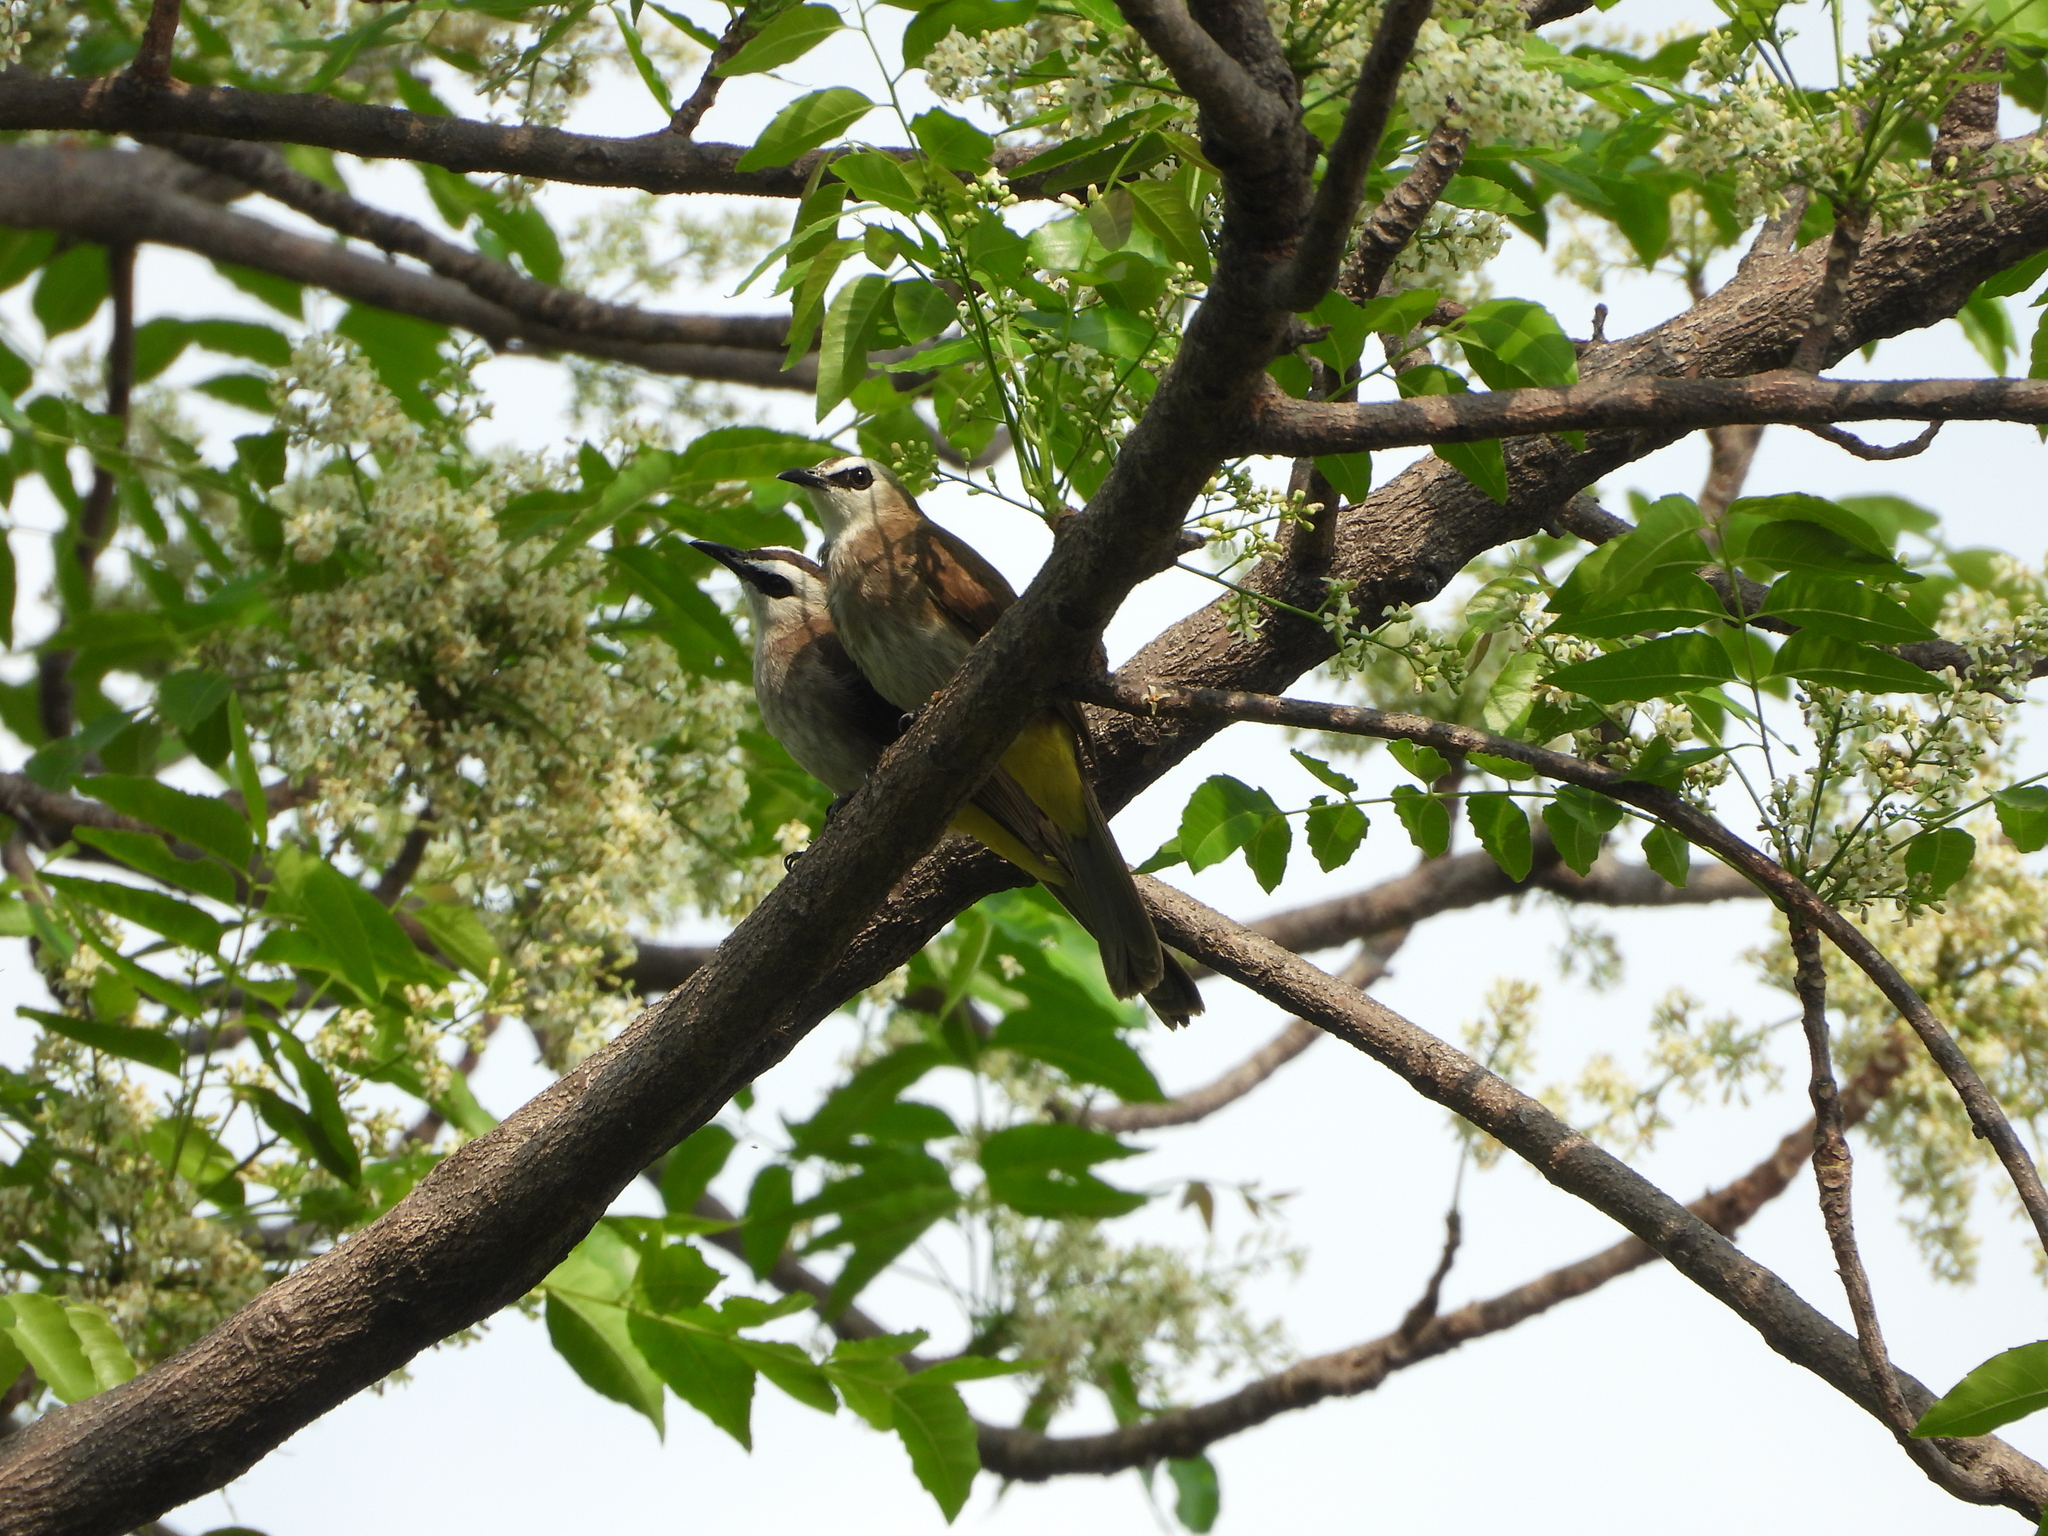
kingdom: Animalia
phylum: Chordata
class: Aves
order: Passeriformes
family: Pycnonotidae
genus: Pycnonotus
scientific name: Pycnonotus goiavier
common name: Yellow-vented bulbul
